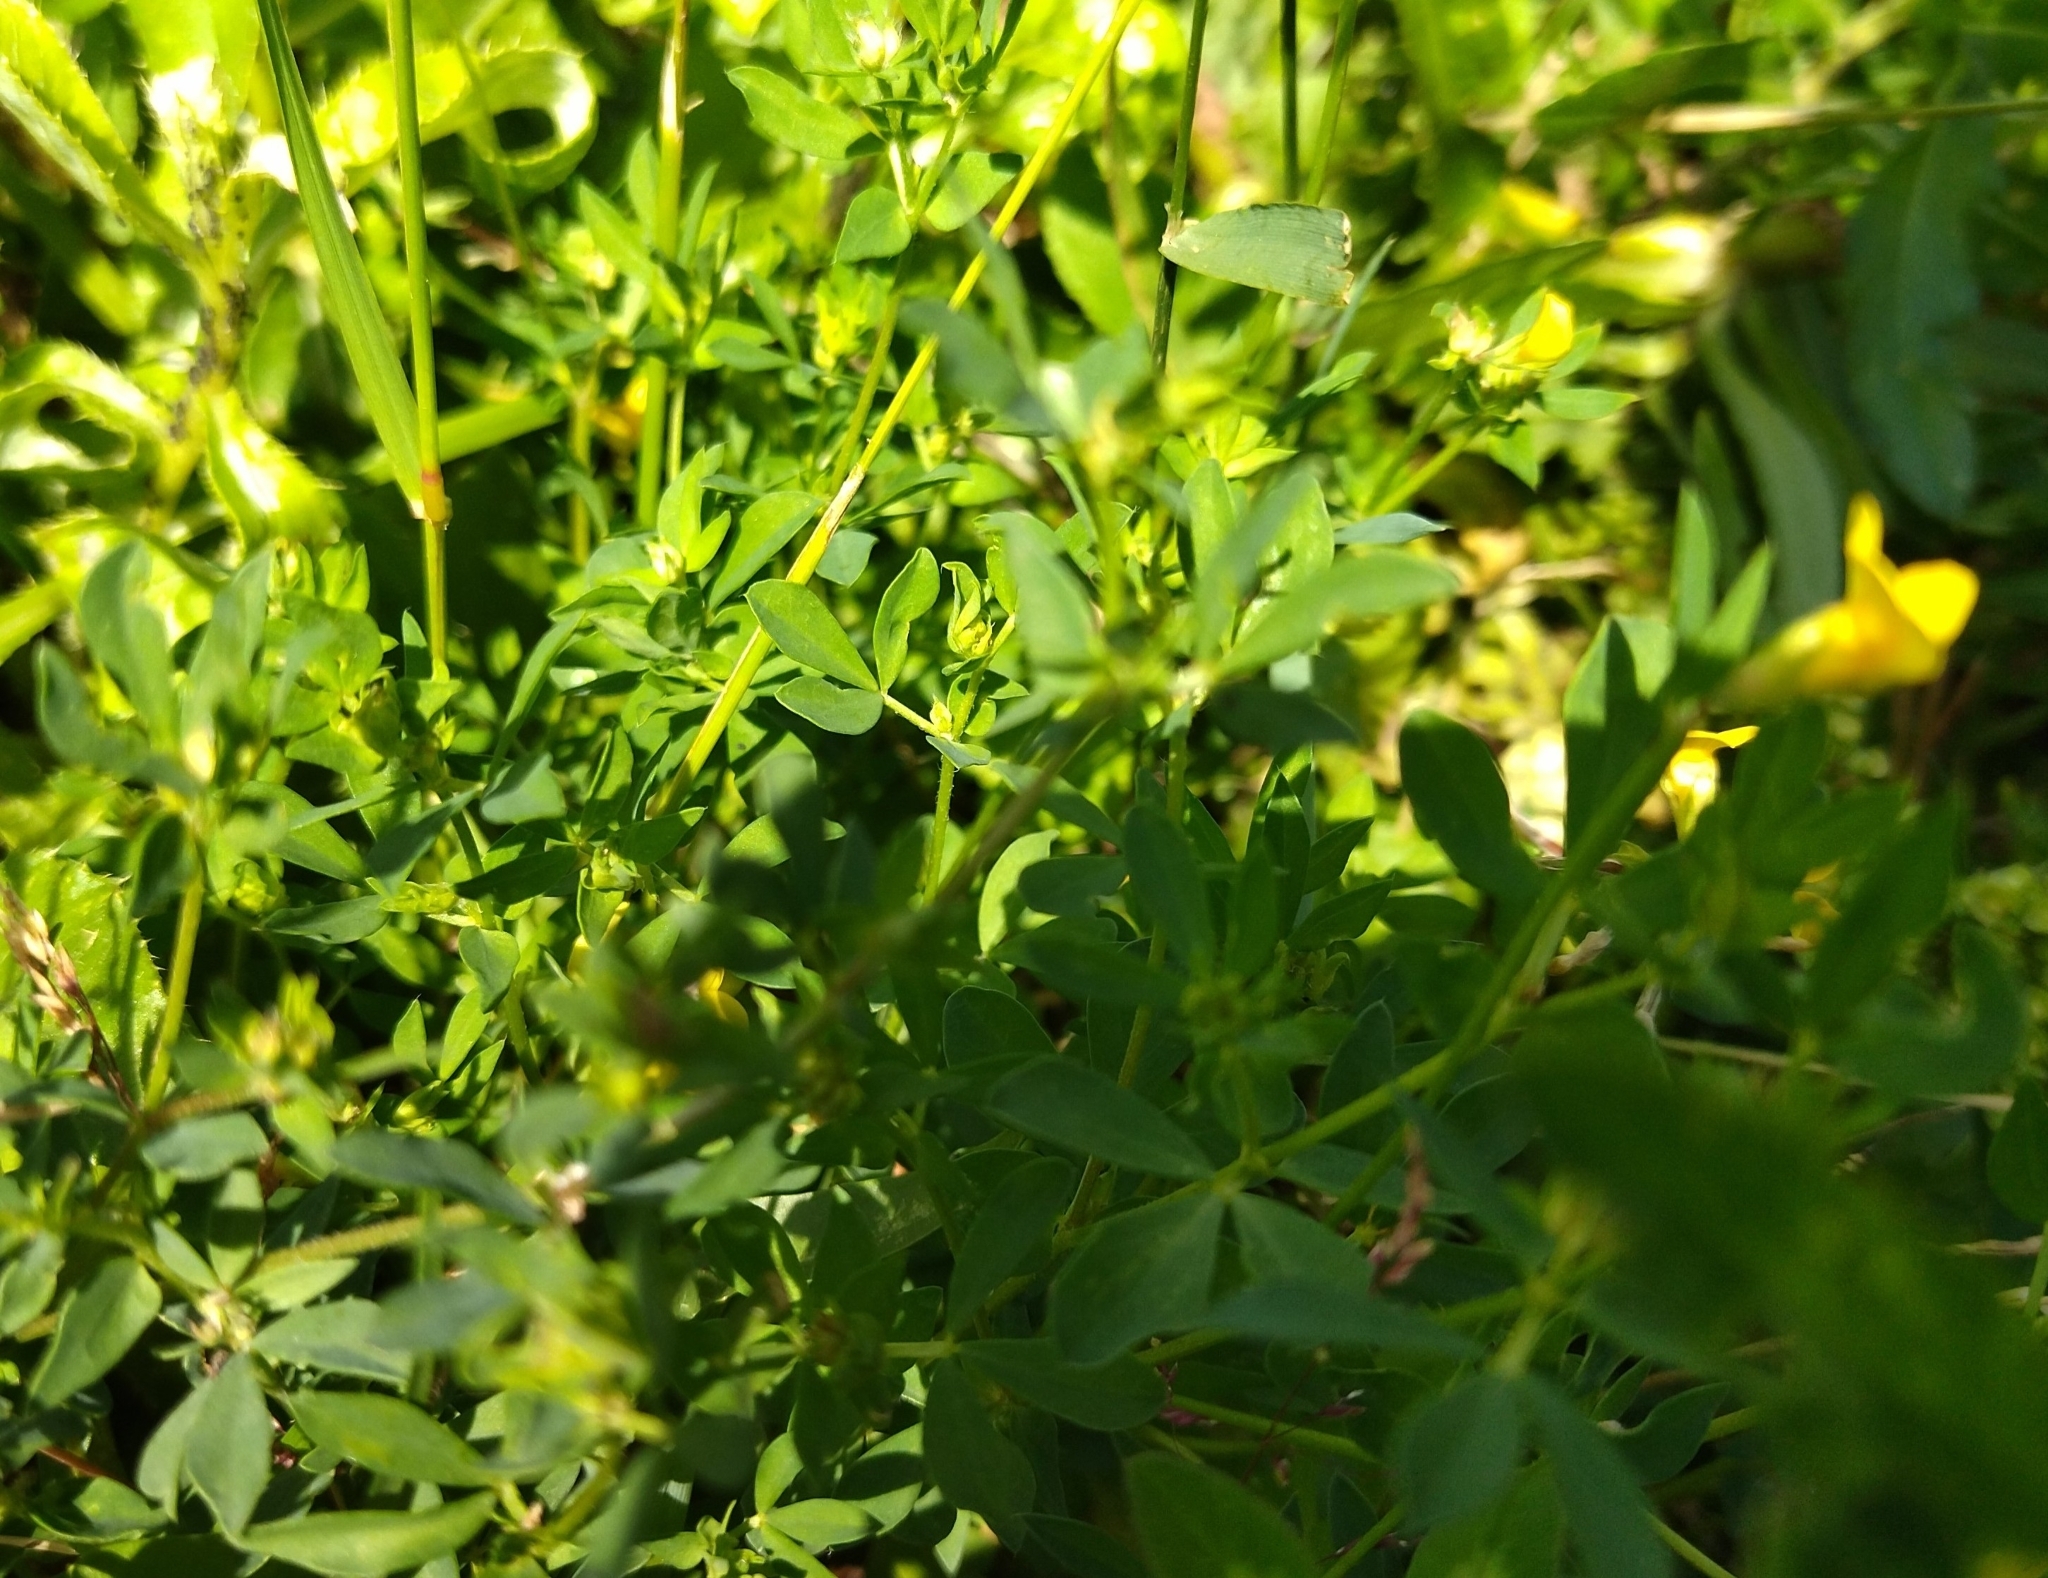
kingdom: Plantae
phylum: Tracheophyta
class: Magnoliopsida
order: Fabales
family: Fabaceae
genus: Lotus
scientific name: Lotus corniculatus
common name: Common bird's-foot-trefoil
